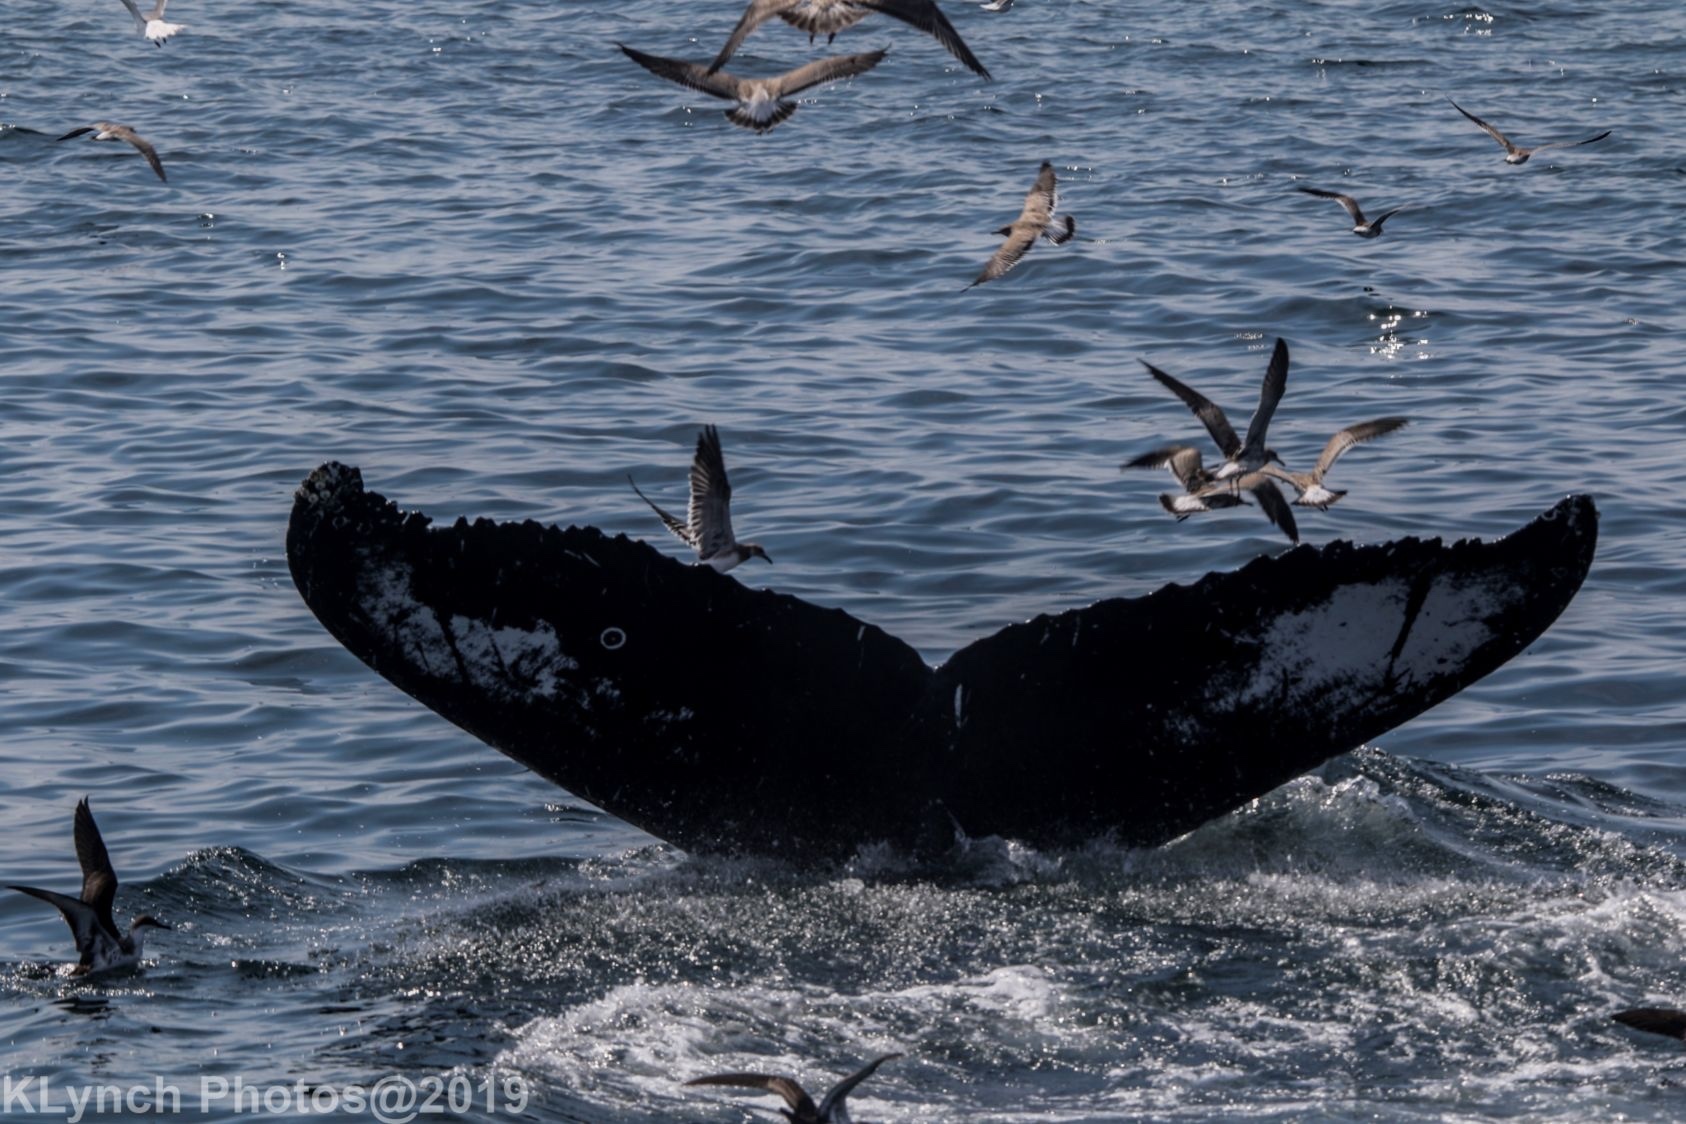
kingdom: Animalia
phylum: Chordata
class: Mammalia
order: Cetacea
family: Balaenopteridae
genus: Megaptera
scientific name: Megaptera novaeangliae
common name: Humpback whale
